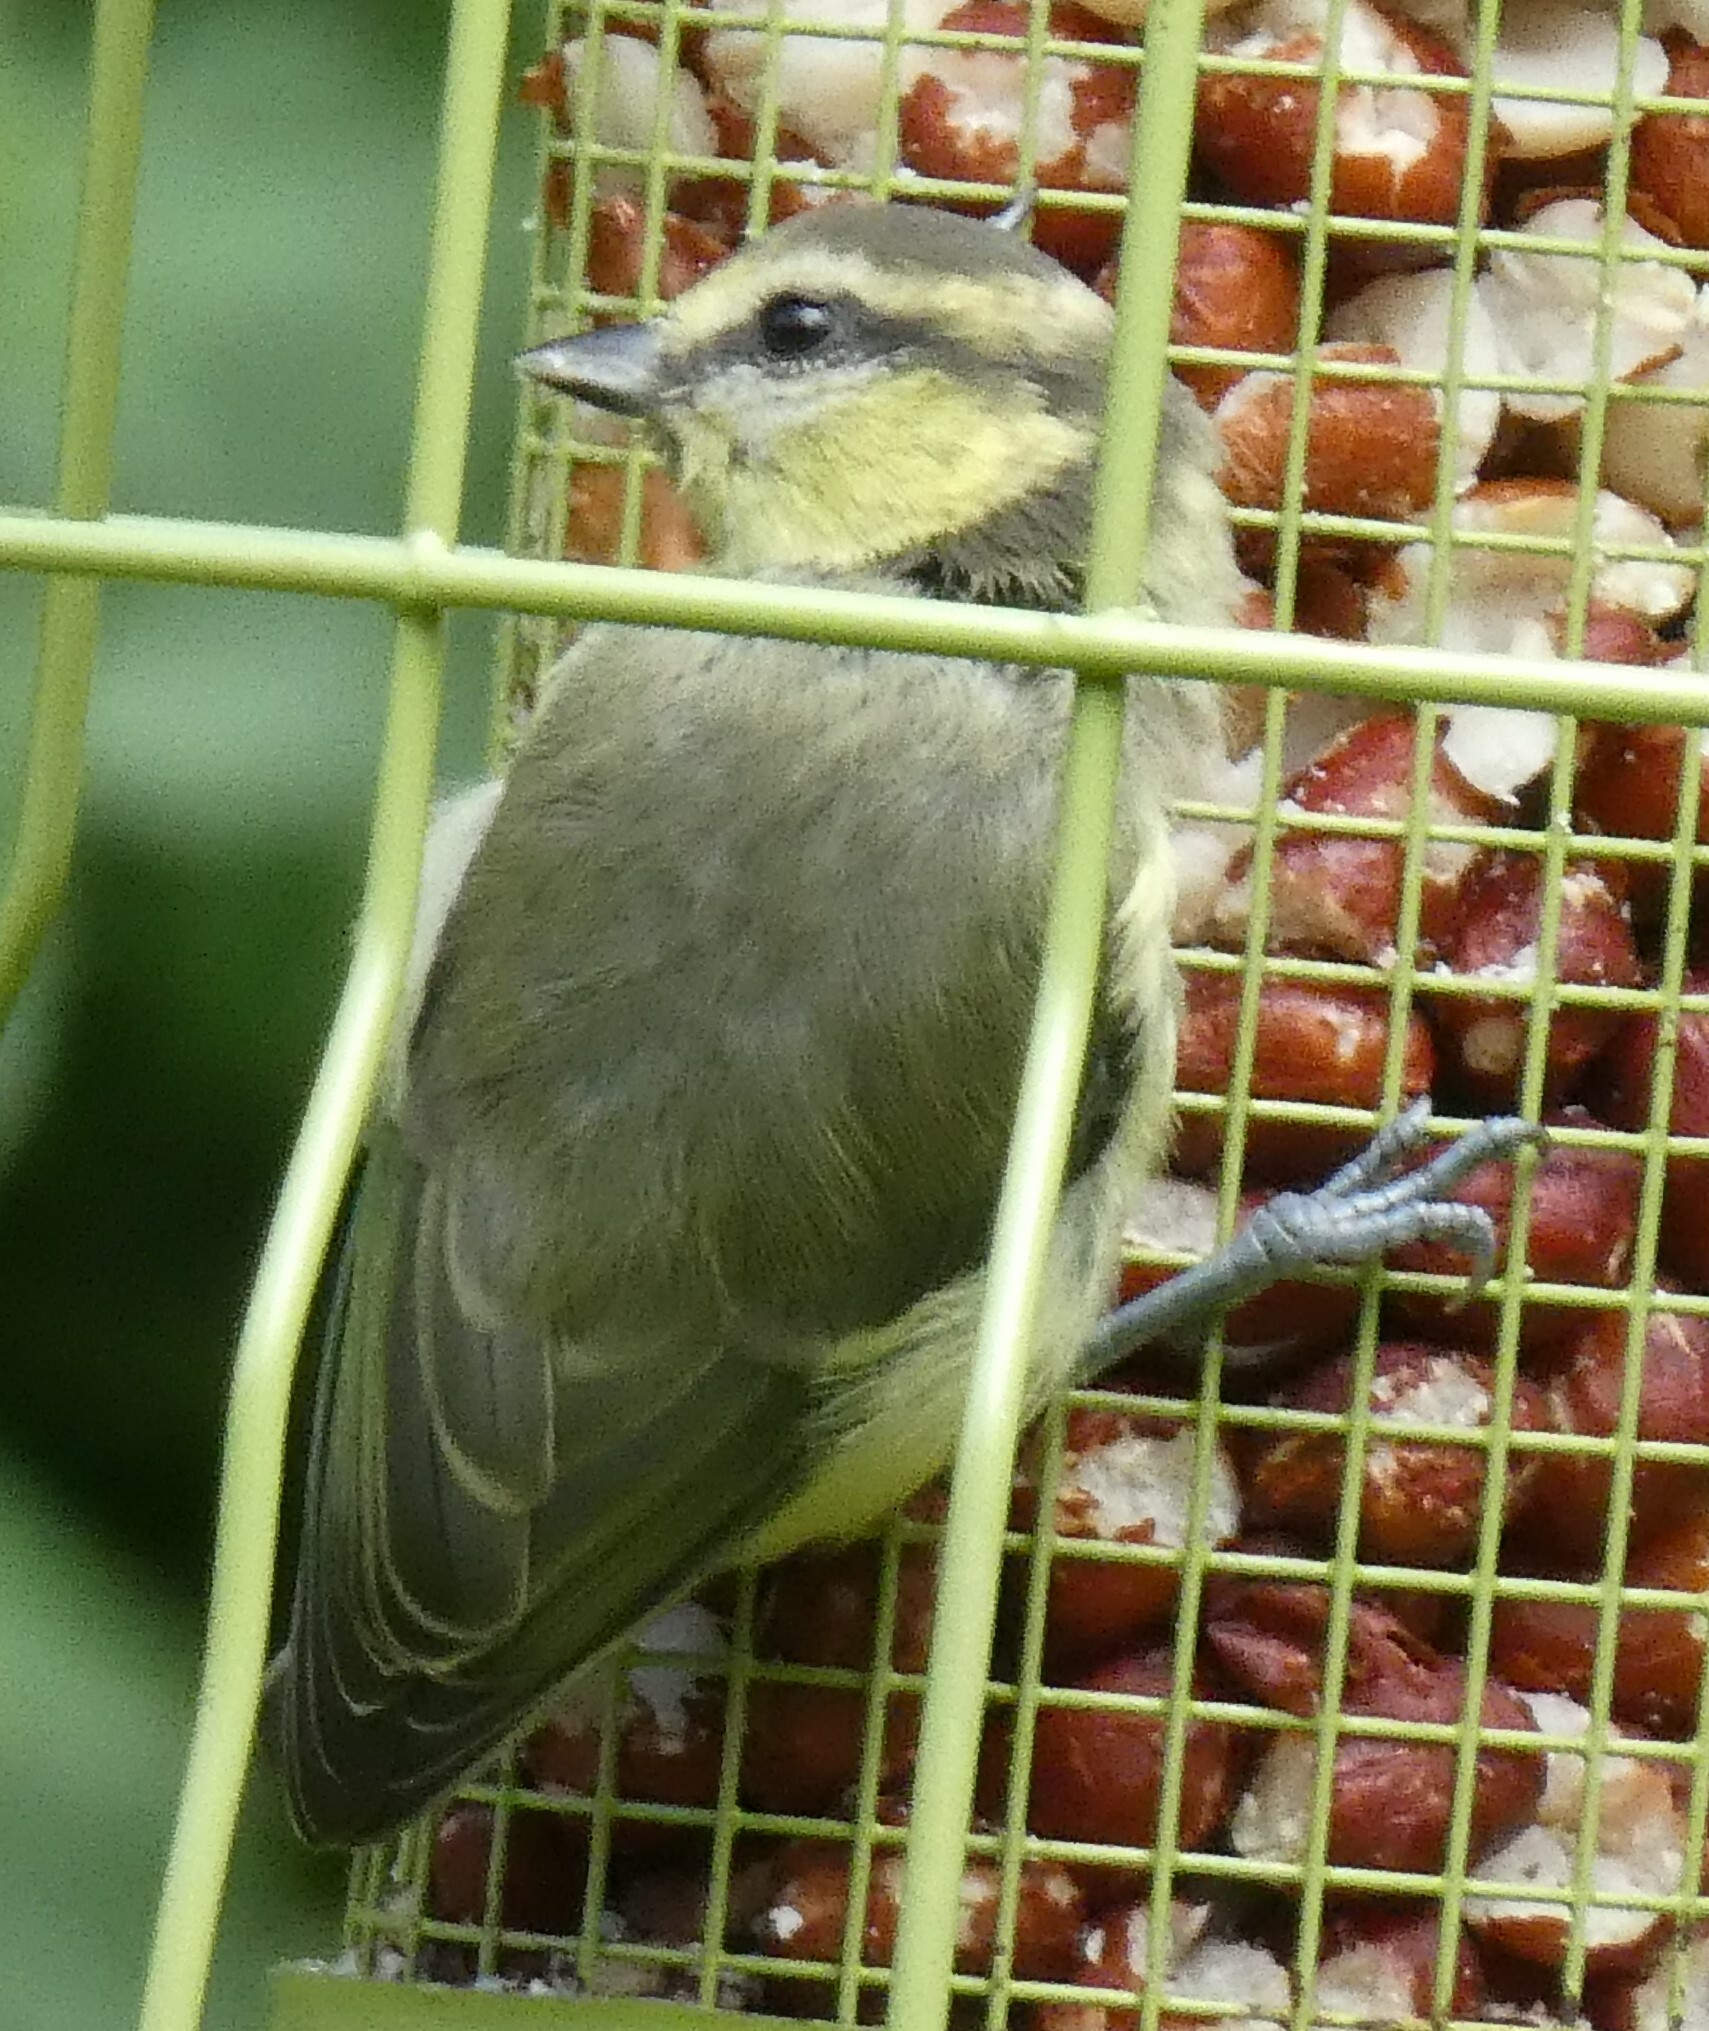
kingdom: Animalia
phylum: Chordata
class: Aves
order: Passeriformes
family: Paridae
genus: Cyanistes
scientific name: Cyanistes caeruleus
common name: Eurasian blue tit
